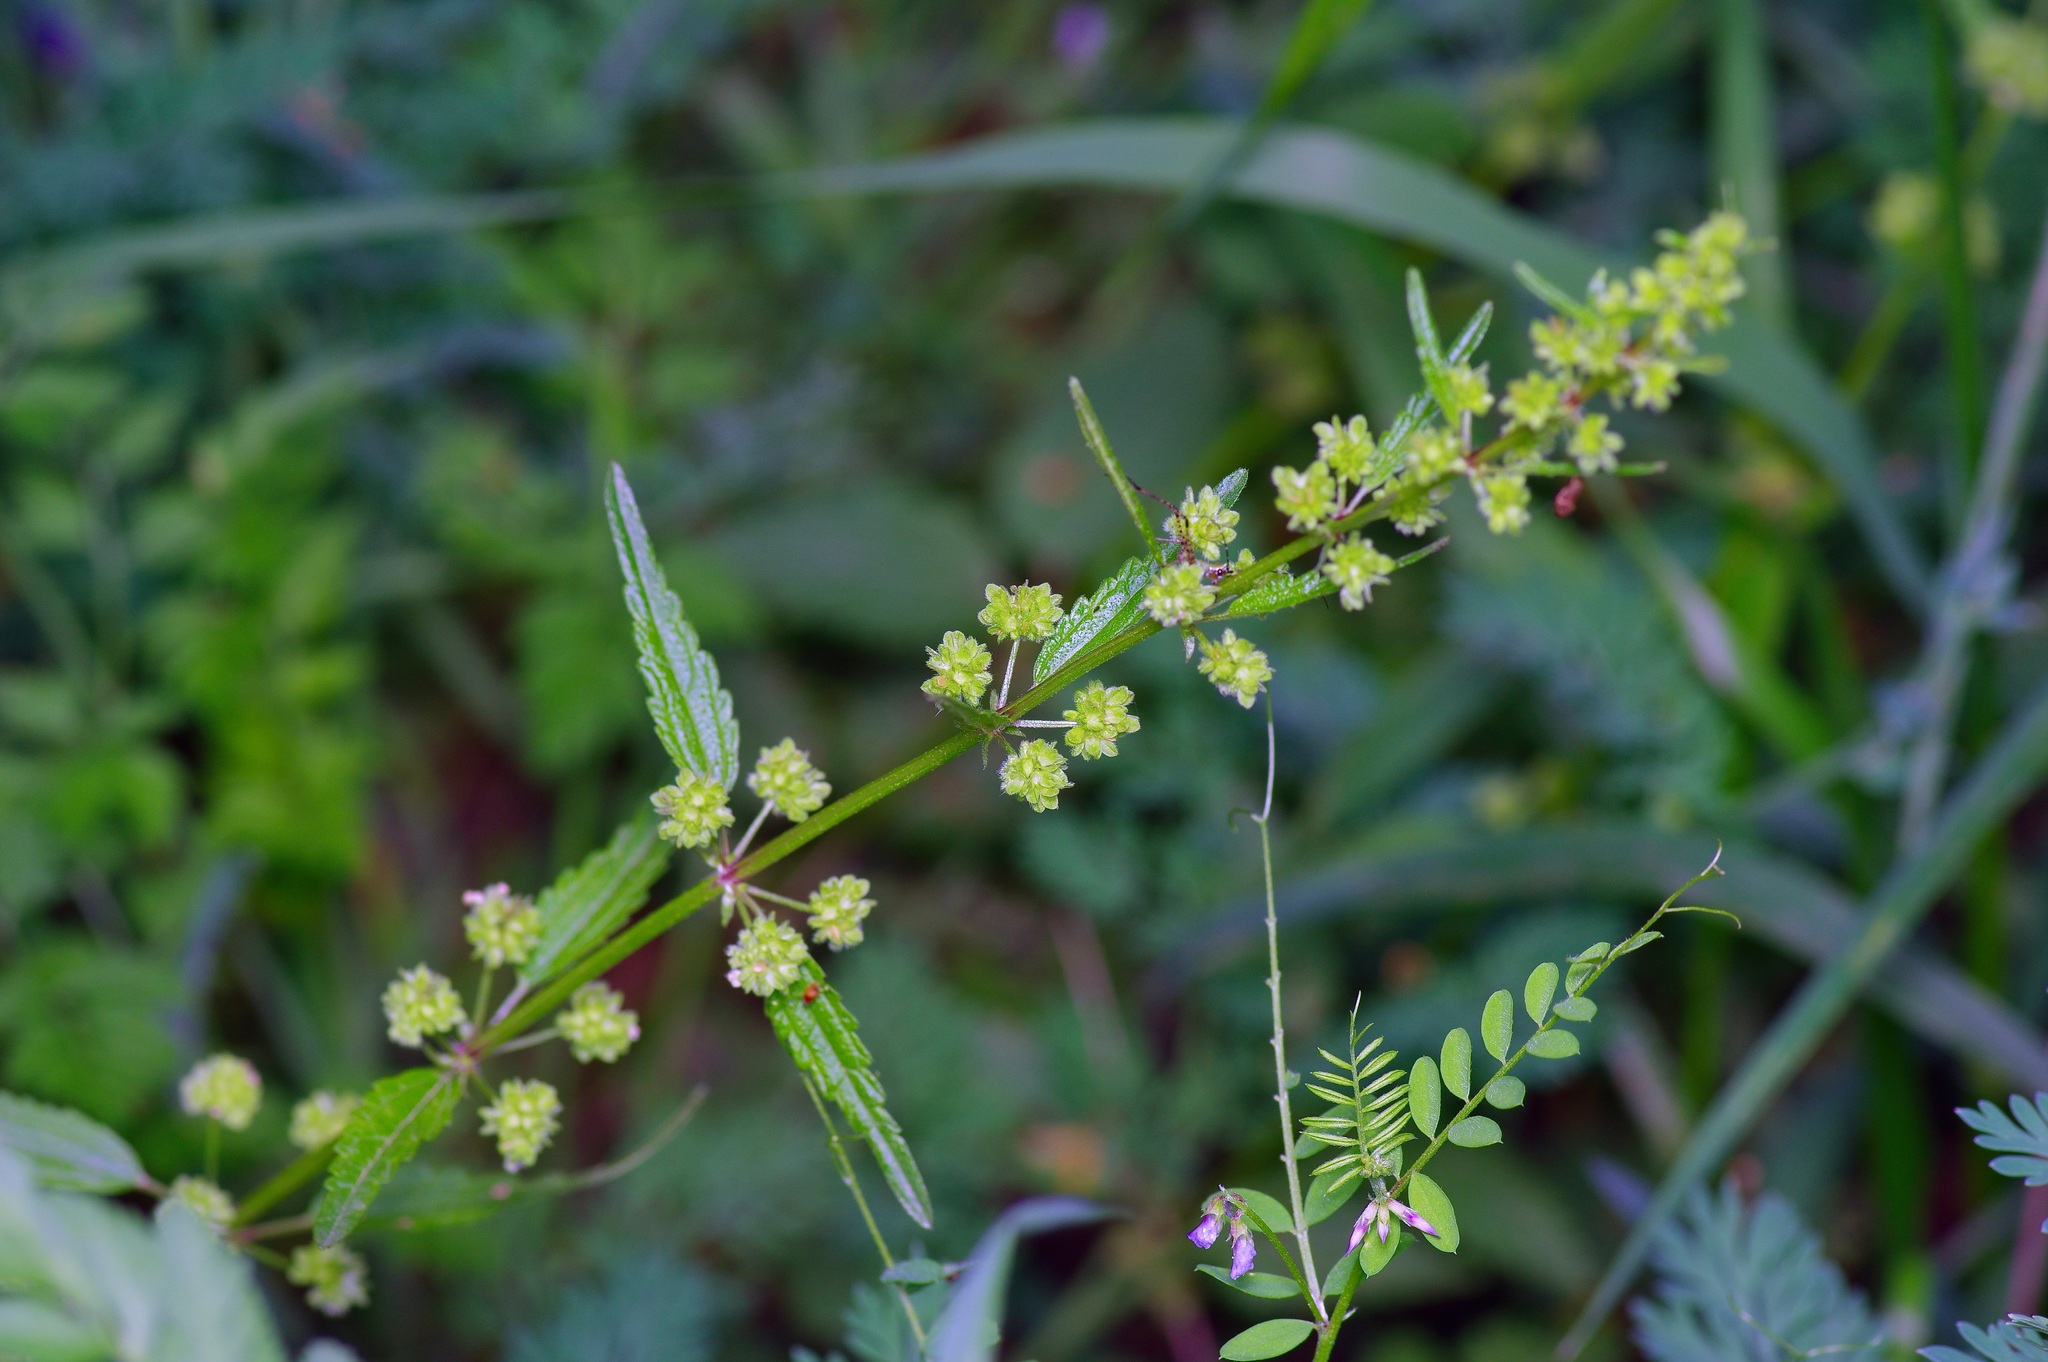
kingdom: Plantae
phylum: Tracheophyta
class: Magnoliopsida
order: Rosales
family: Urticaceae
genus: Urtica
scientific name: Urtica chamaedryoides
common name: Heart-leaf nettle
